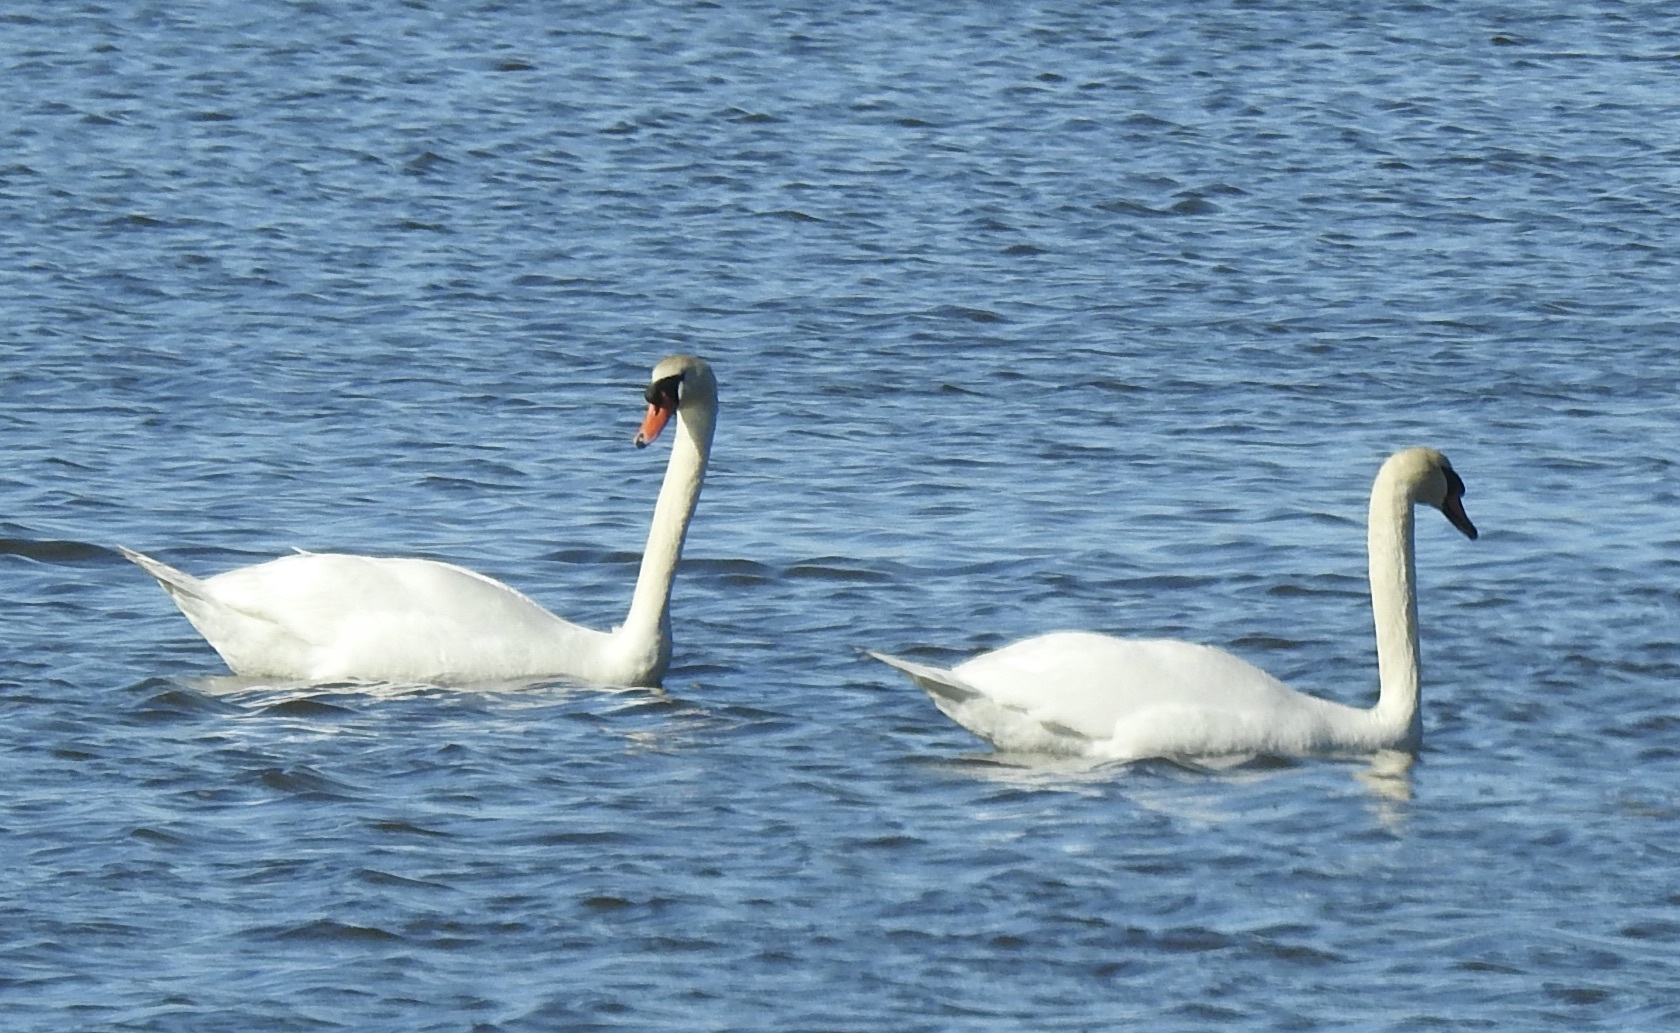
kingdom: Animalia
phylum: Chordata
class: Aves
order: Anseriformes
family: Anatidae
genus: Cygnus
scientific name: Cygnus olor
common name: Mute swan
